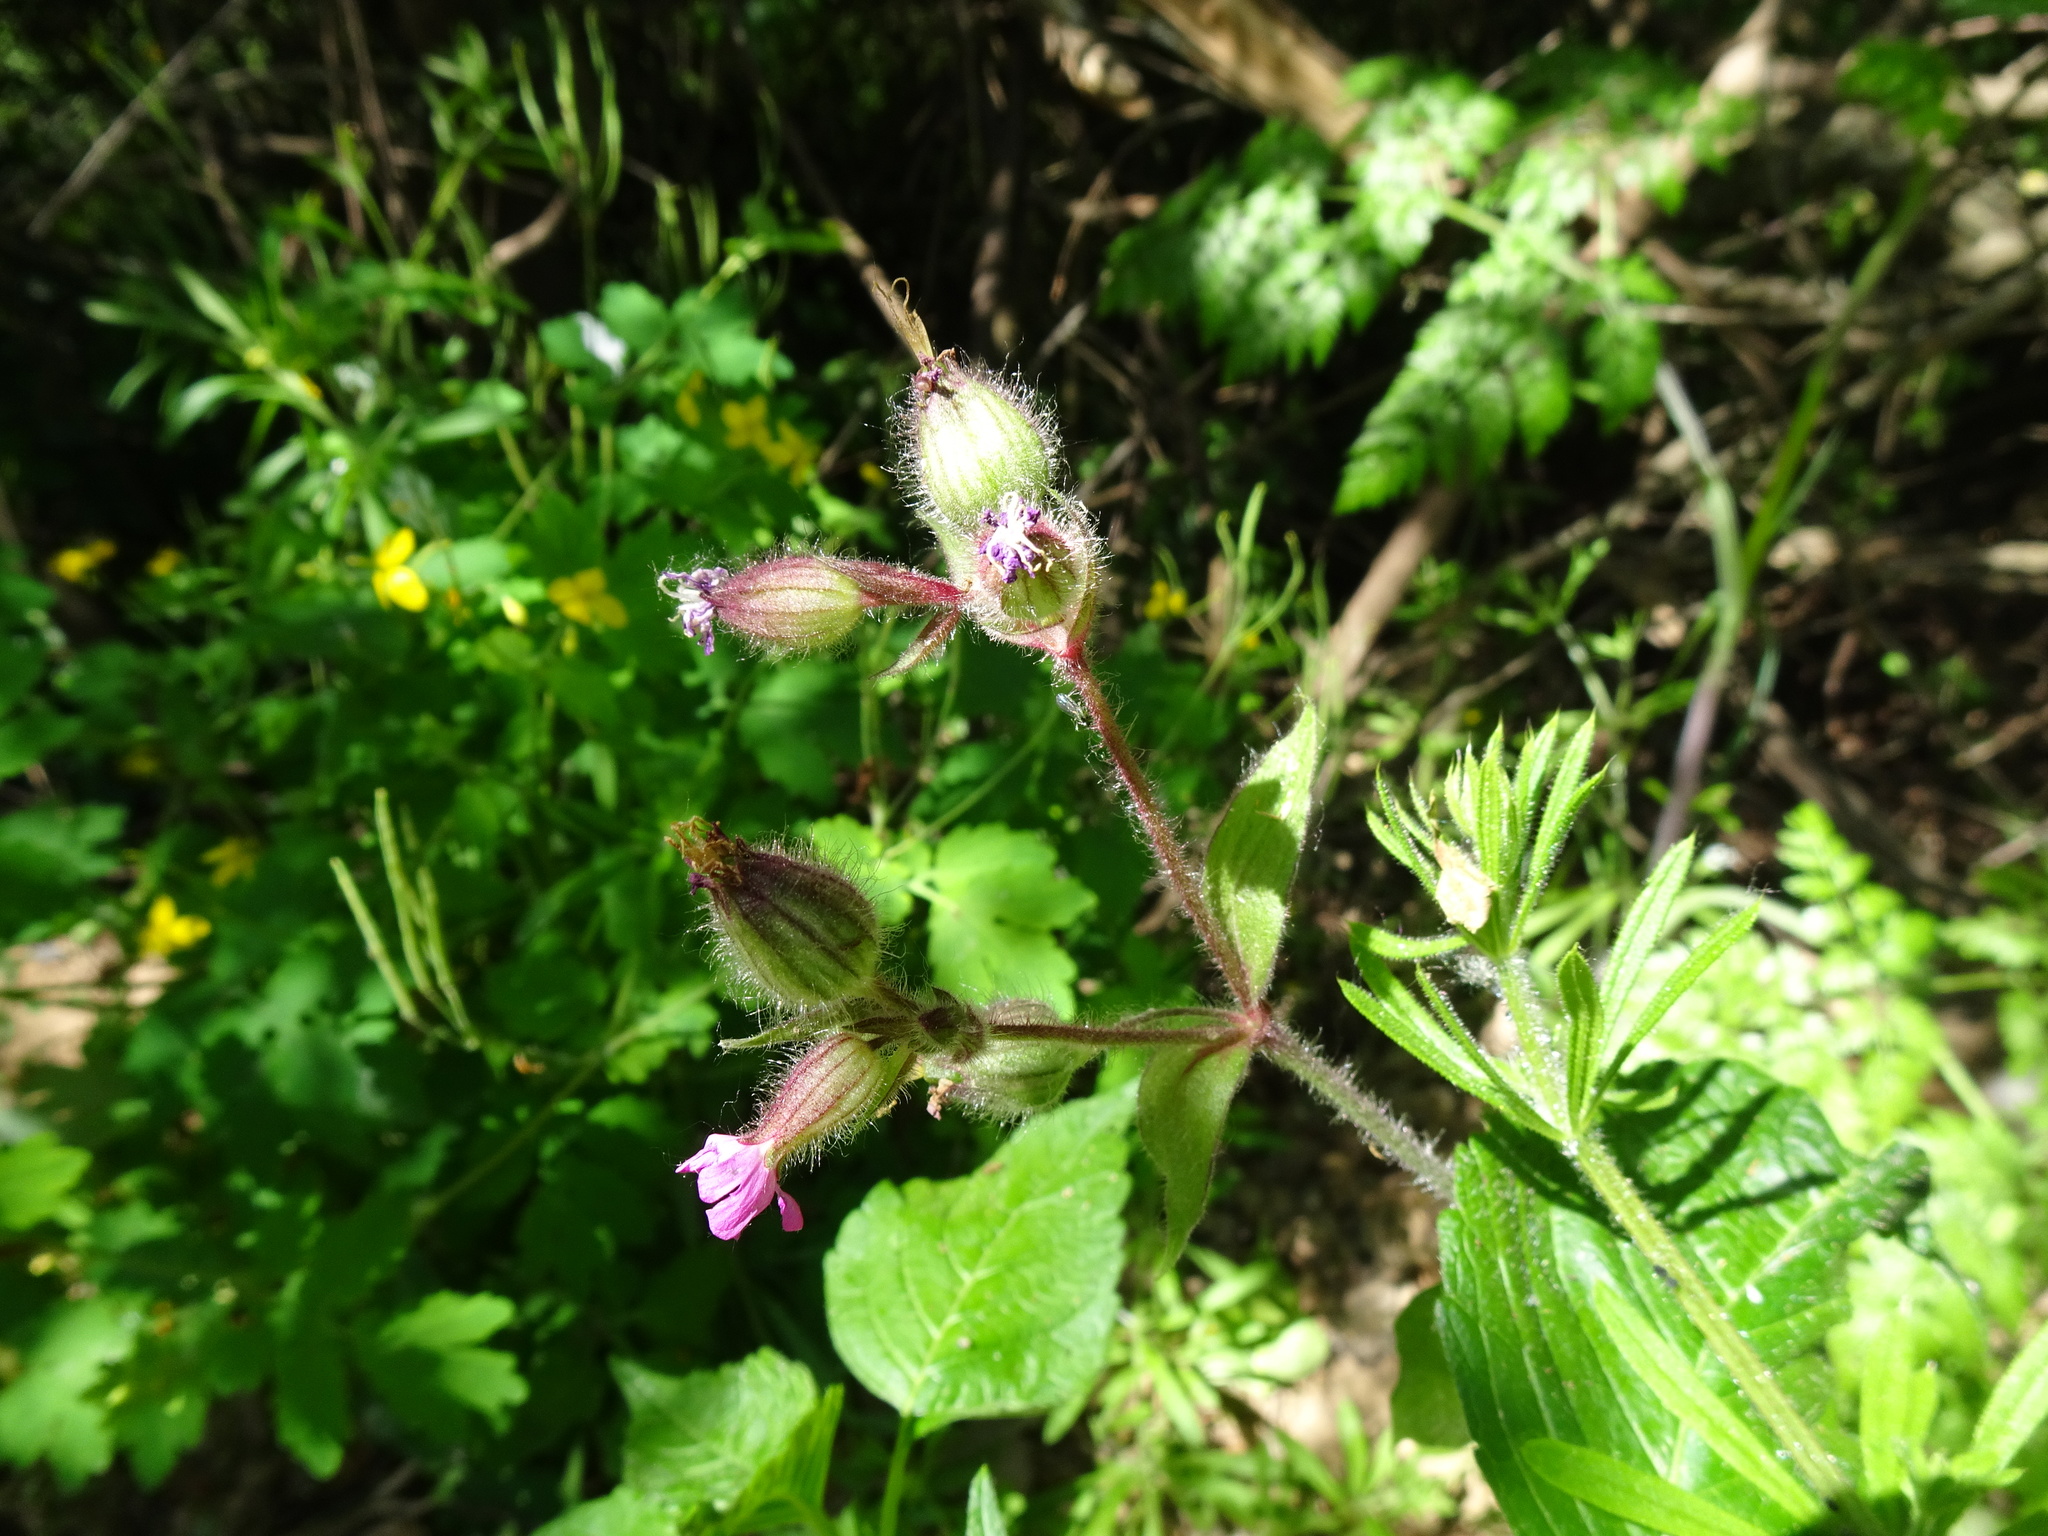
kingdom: Plantae
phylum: Tracheophyta
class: Magnoliopsida
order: Caryophyllales
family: Caryophyllaceae
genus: Silene
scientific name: Silene dioica
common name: Red campion
